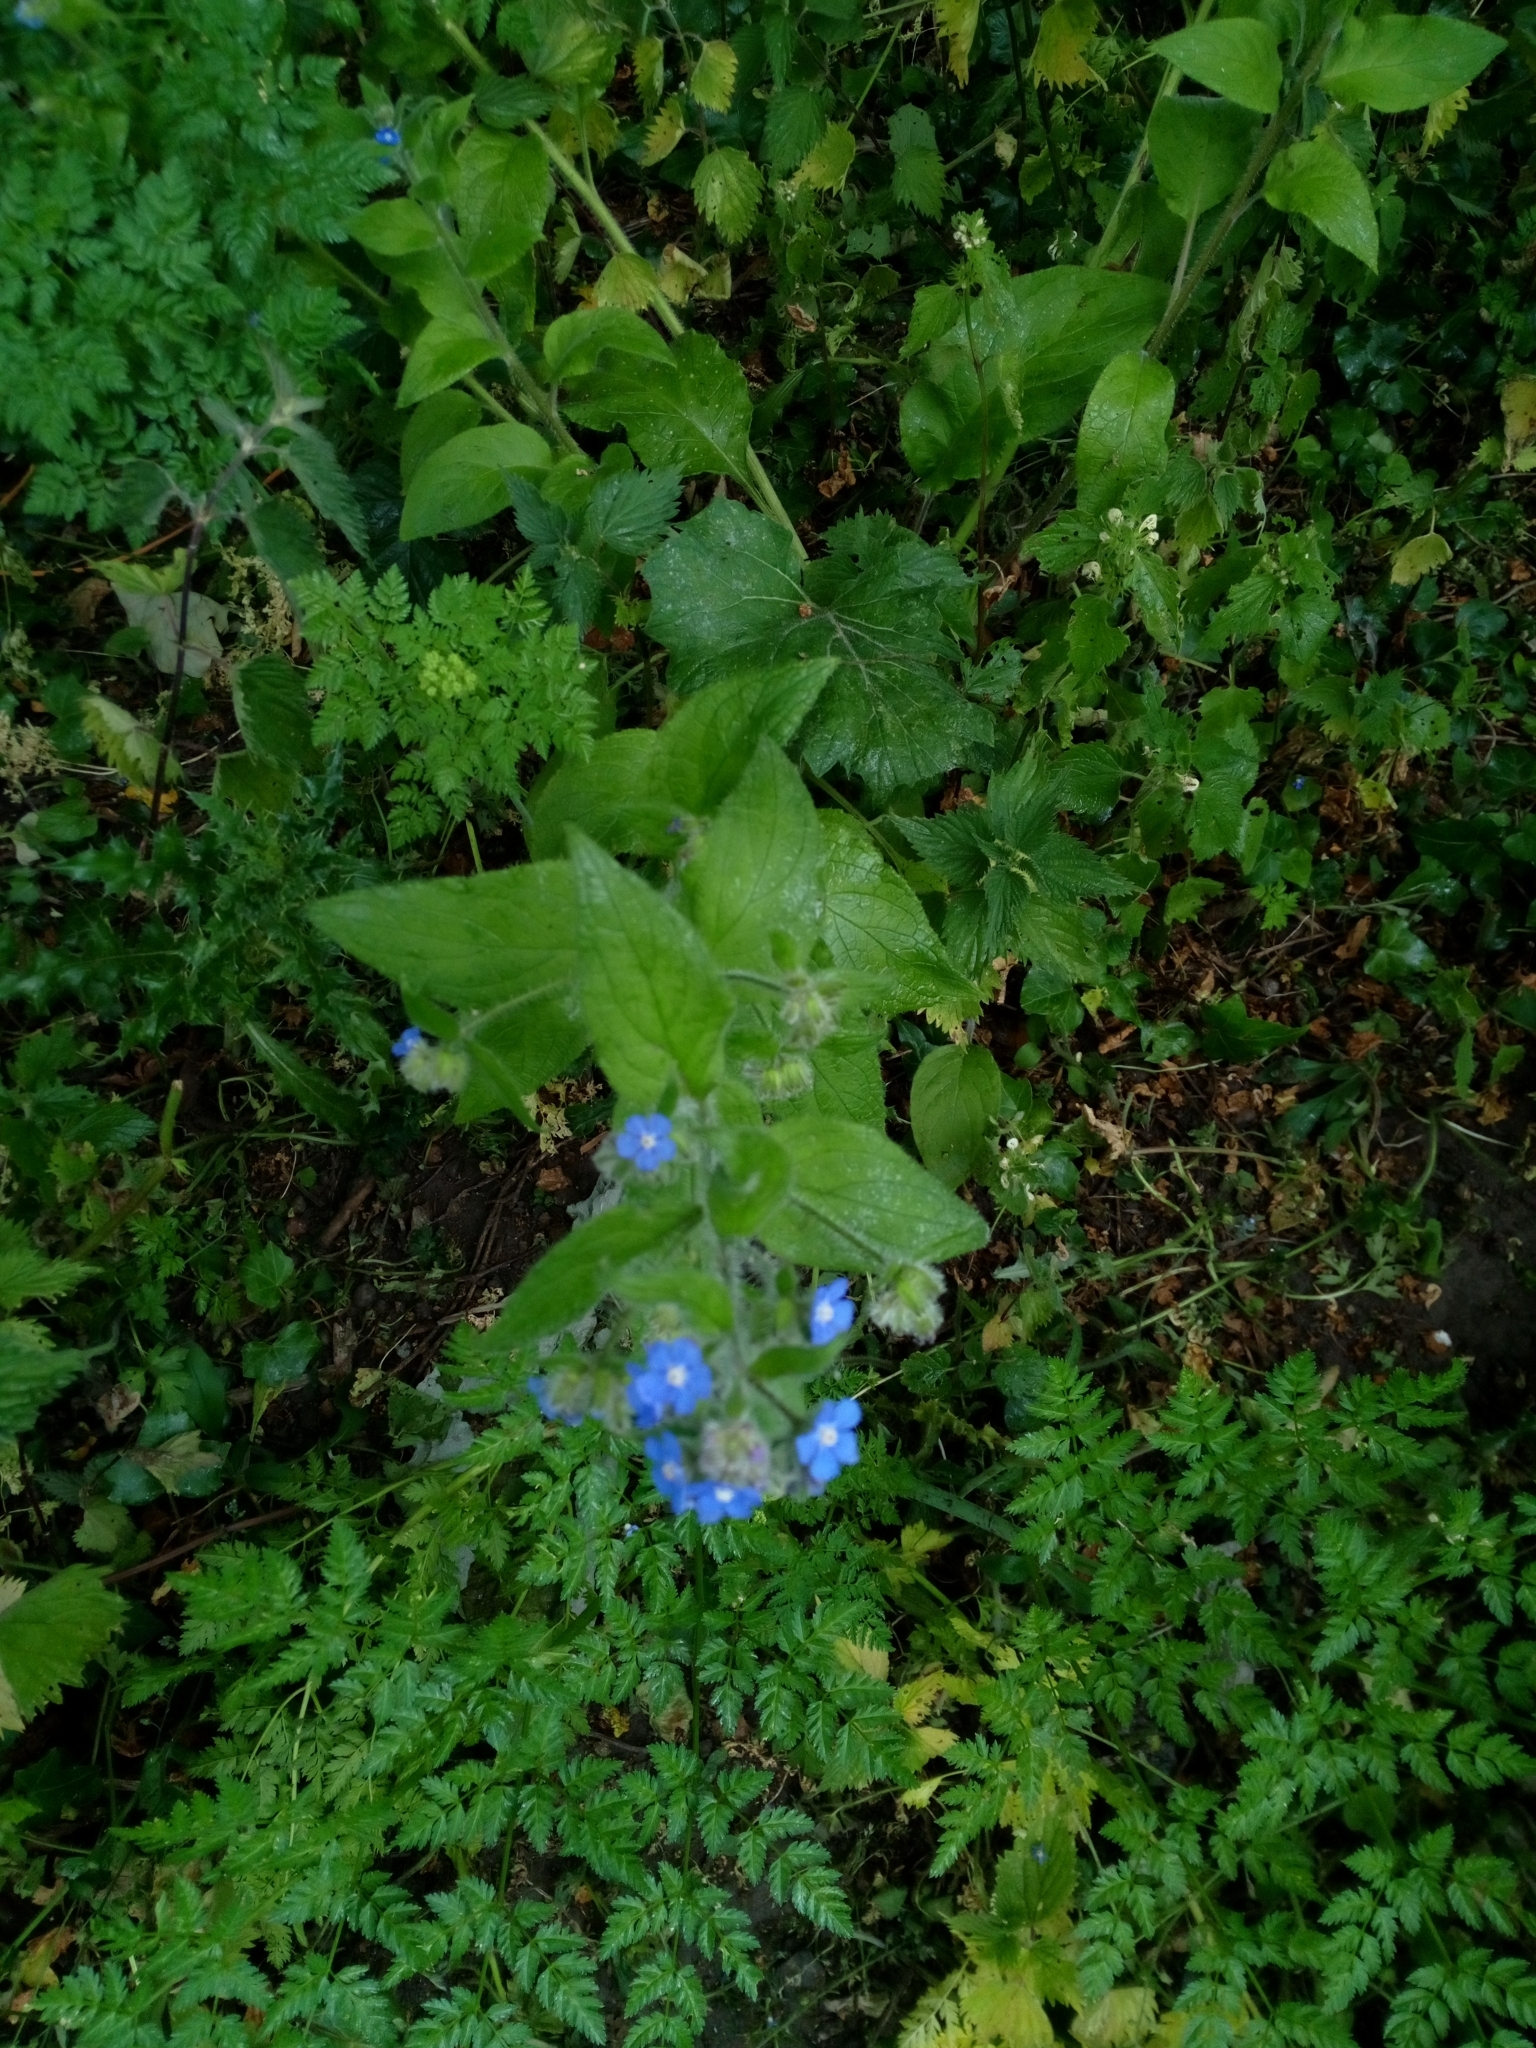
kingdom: Plantae
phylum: Tracheophyta
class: Magnoliopsida
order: Boraginales
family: Boraginaceae
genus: Pentaglottis
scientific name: Pentaglottis sempervirens
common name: Green alkanet
